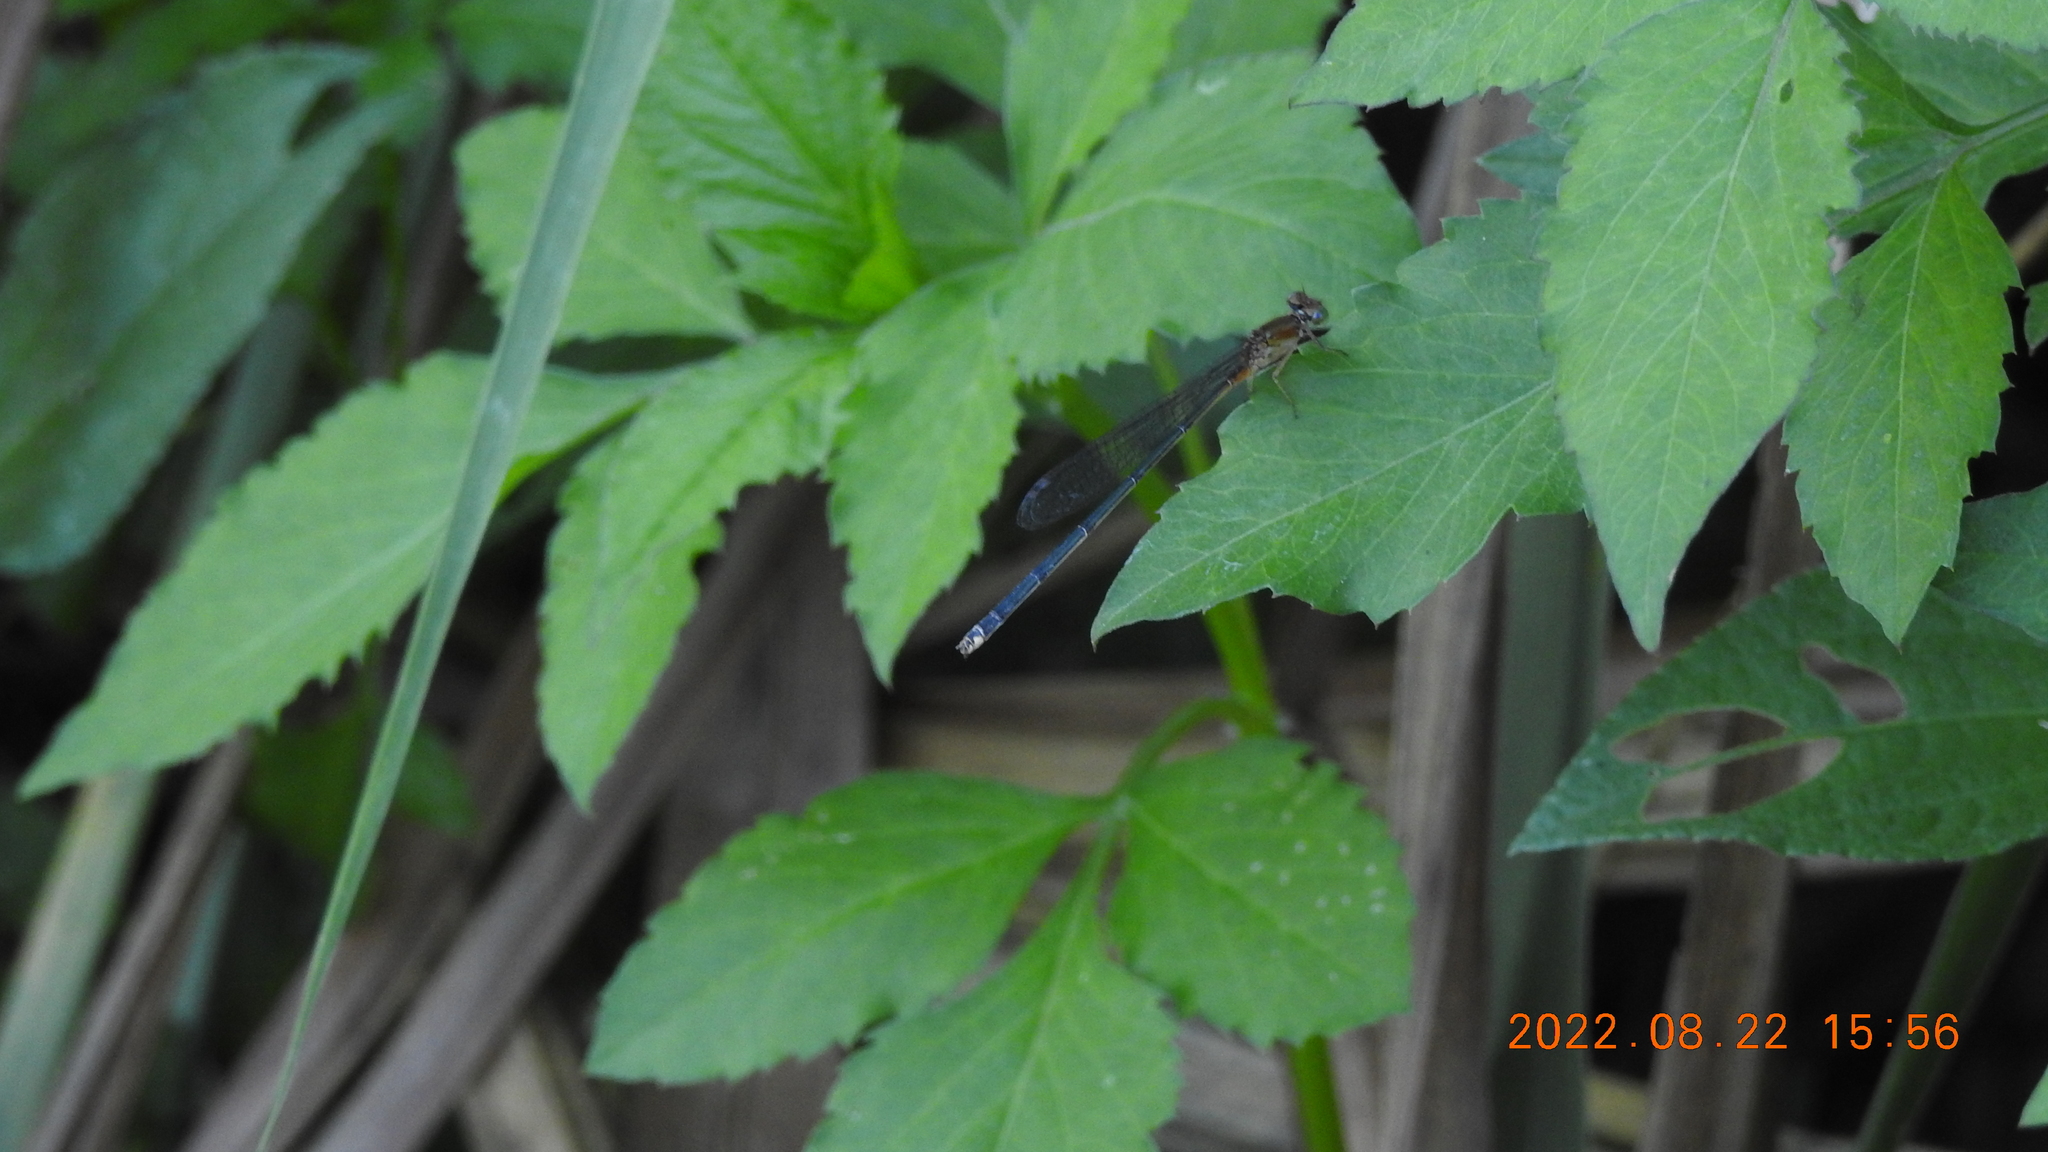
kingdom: Animalia
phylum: Arthropoda
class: Insecta
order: Odonata
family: Coenagrionidae
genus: Pseudagrion
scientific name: Pseudagrion pilidorsum
